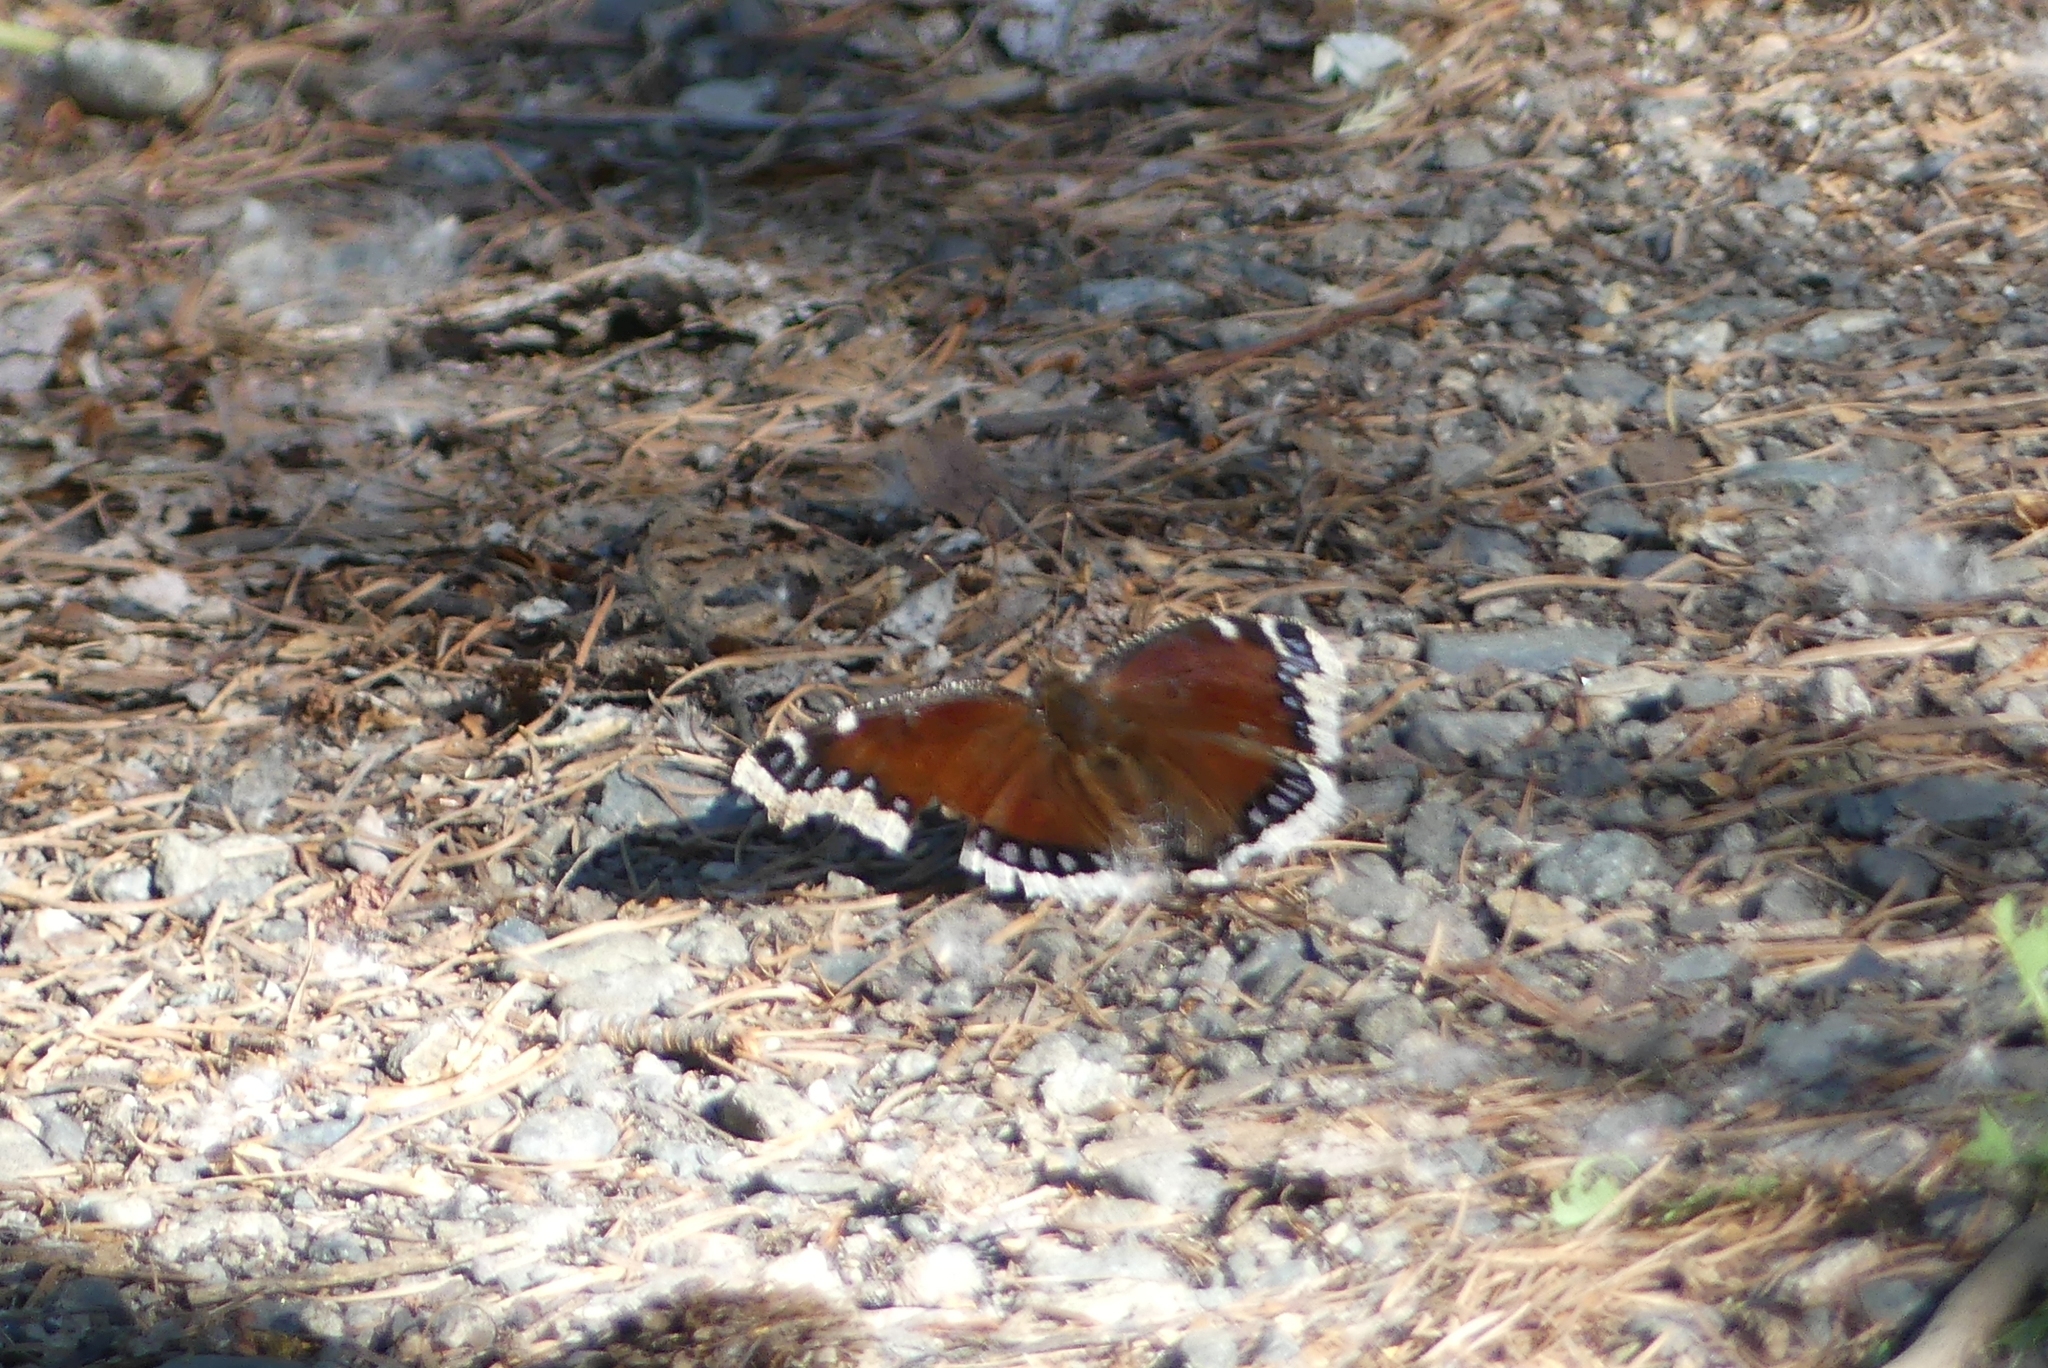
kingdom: Animalia
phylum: Arthropoda
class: Insecta
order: Lepidoptera
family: Nymphalidae
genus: Nymphalis
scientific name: Nymphalis antiopa
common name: Camberwell beauty
